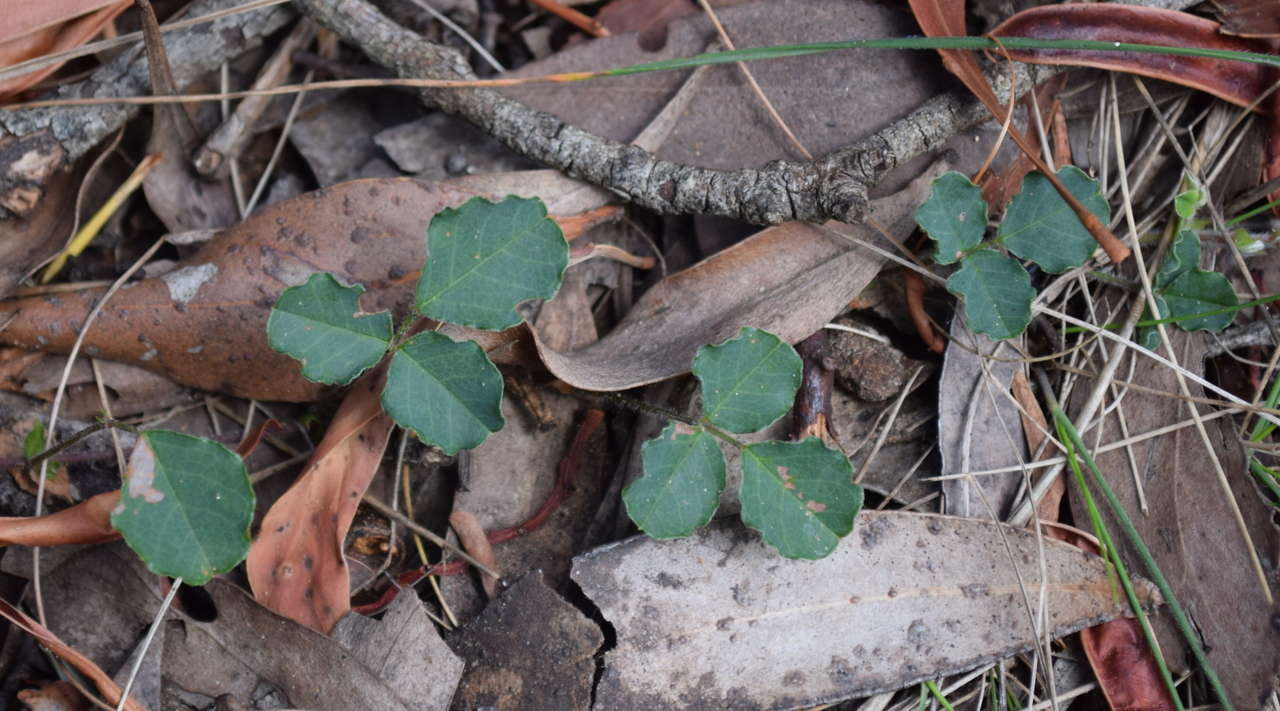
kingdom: Plantae
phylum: Tracheophyta
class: Magnoliopsida
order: Fabales
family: Fabaceae
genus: Kennedia
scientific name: Kennedia prostrata
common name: Running-postman
